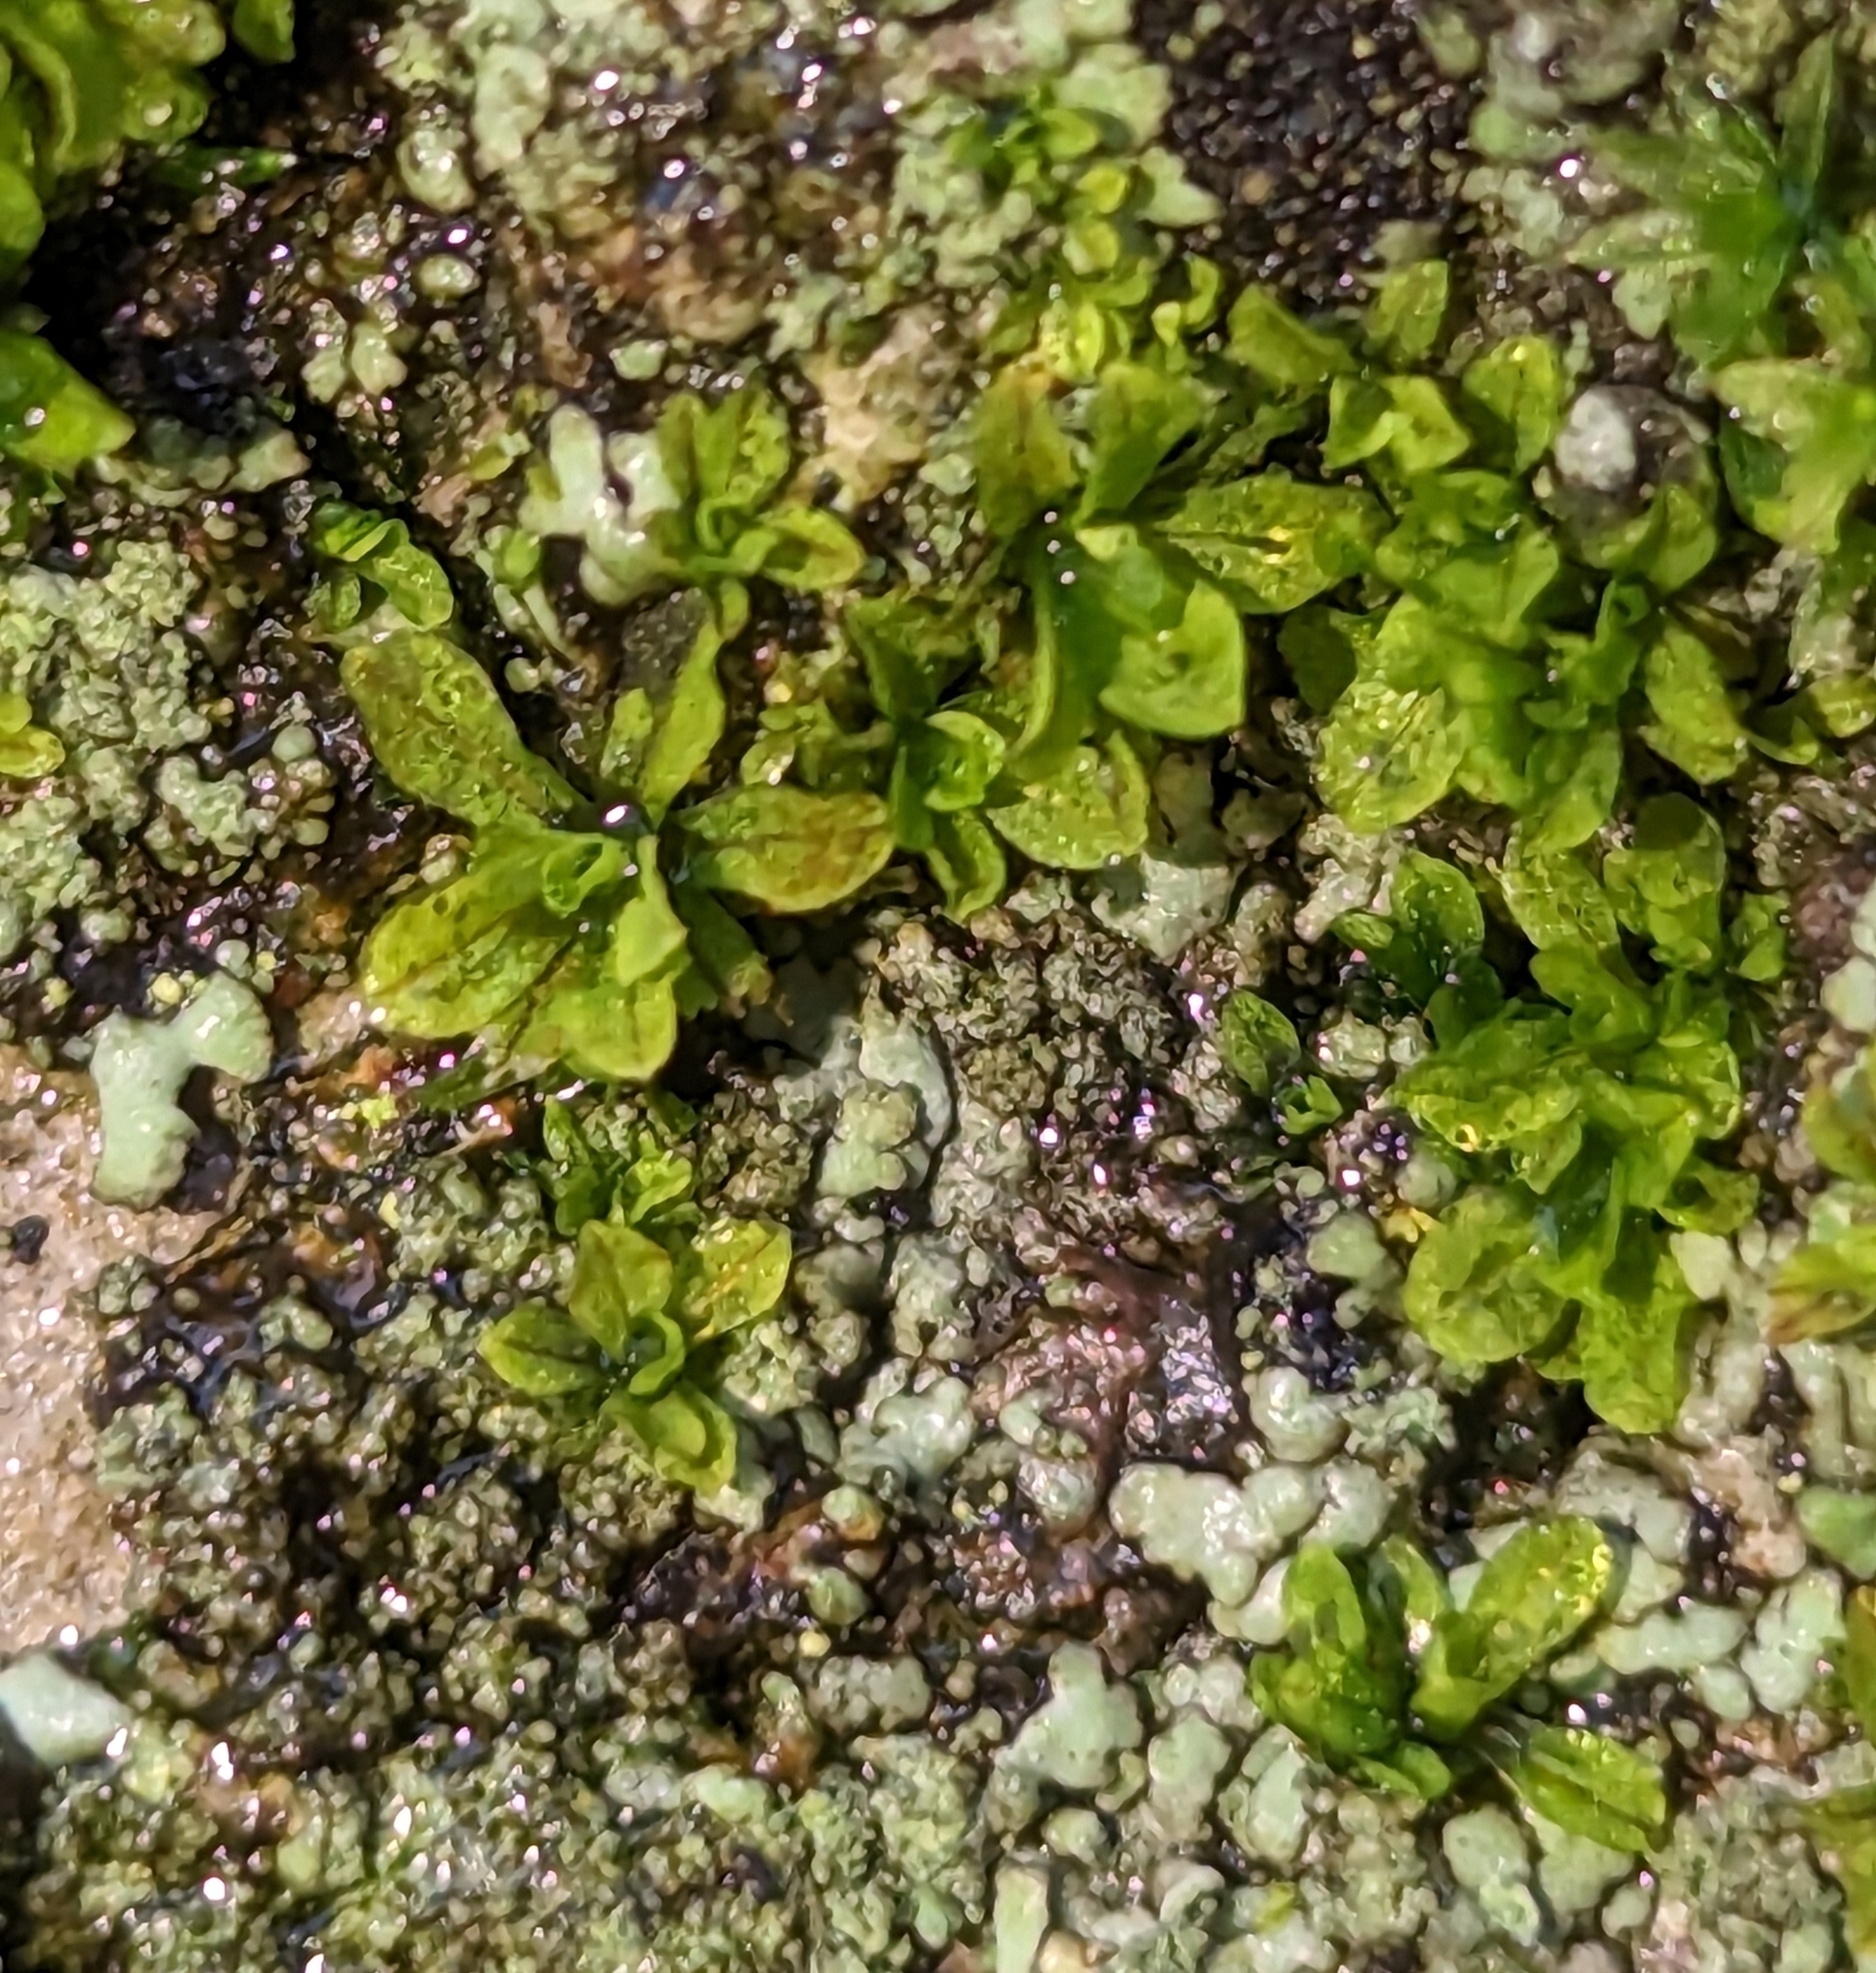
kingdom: Plantae
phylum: Bryophyta
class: Bryopsida
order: Pottiales
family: Pottiaceae
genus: Syntrichia
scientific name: Syntrichia latifolia
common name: Water screw-moss
